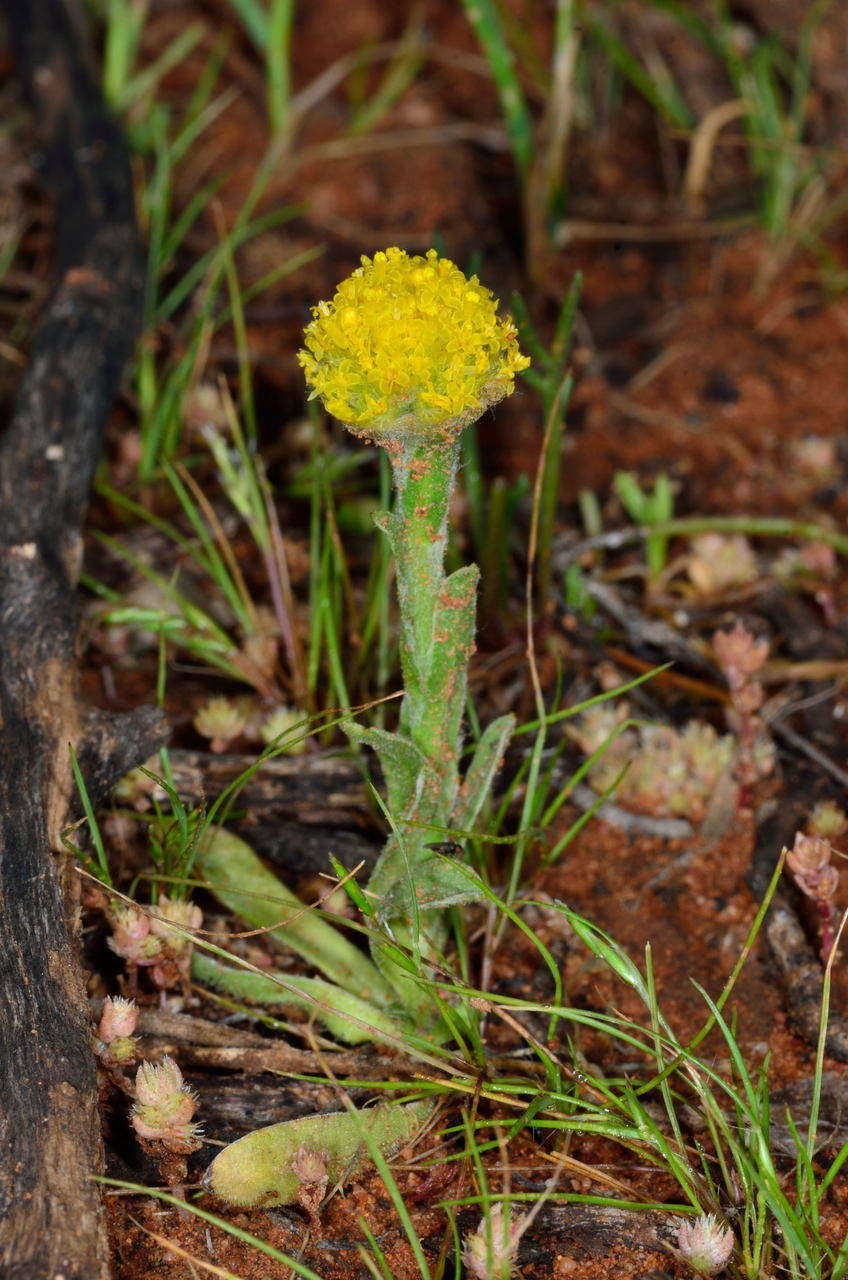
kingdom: Plantae
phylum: Tracheophyta
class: Magnoliopsida
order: Asterales
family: Asteraceae
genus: Pycnosorus
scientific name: Pycnosorus pleiocephalus
